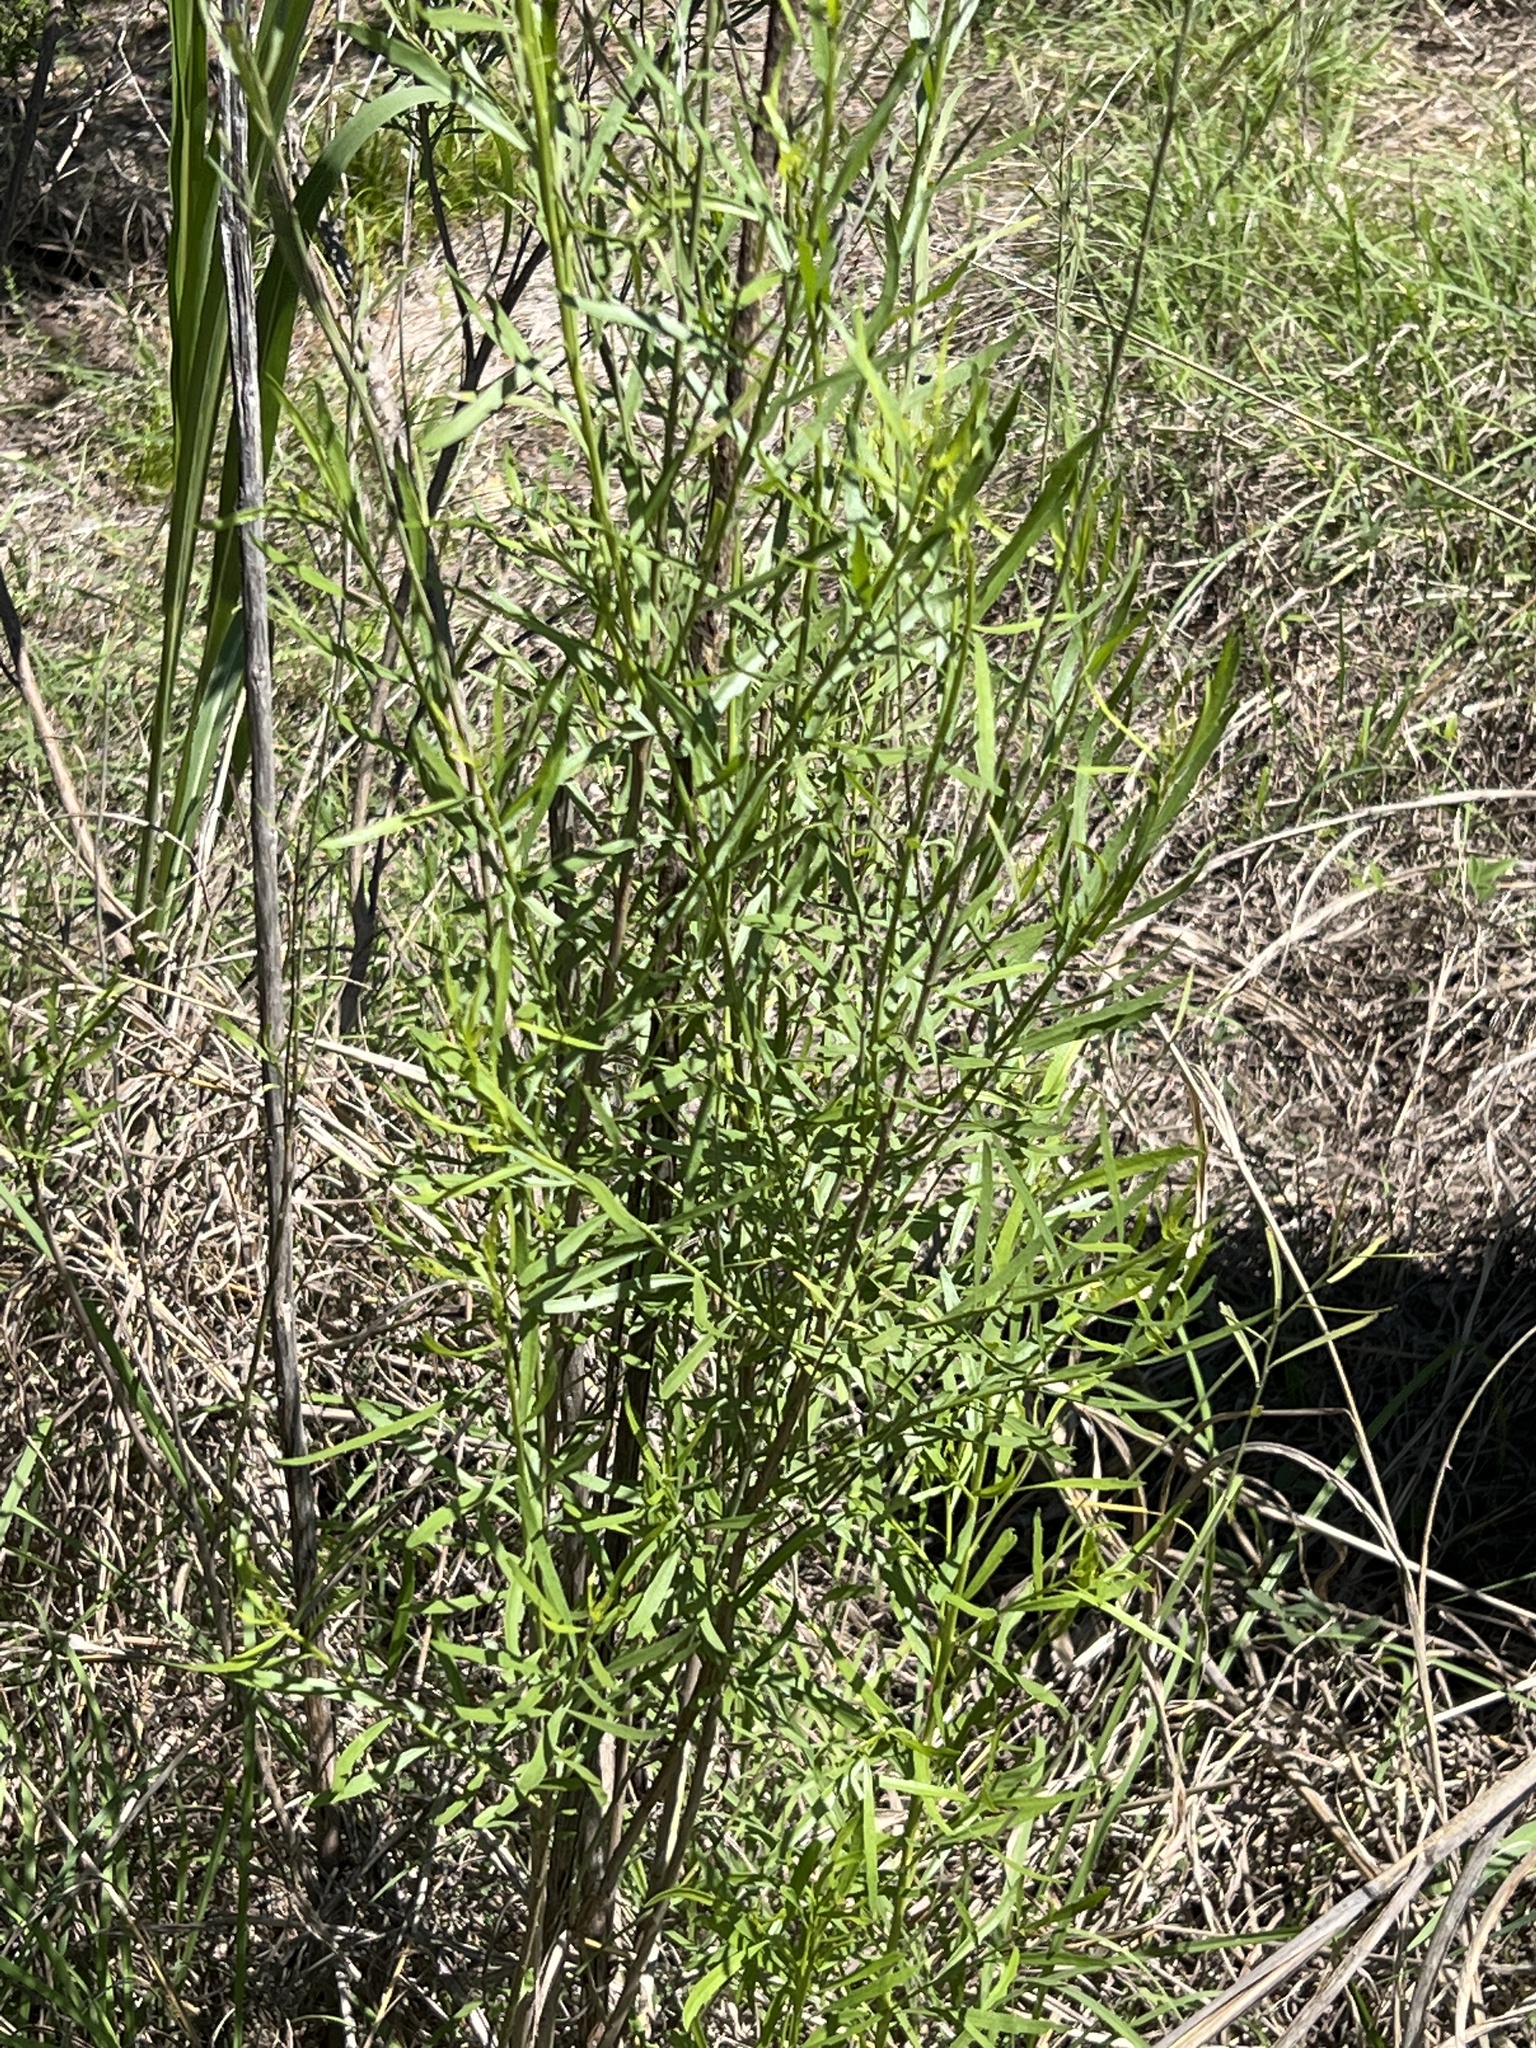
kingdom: Plantae
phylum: Tracheophyta
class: Magnoliopsida
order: Asterales
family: Asteraceae
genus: Baccharis
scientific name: Baccharis neglecta
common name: Roosevelt-weed
